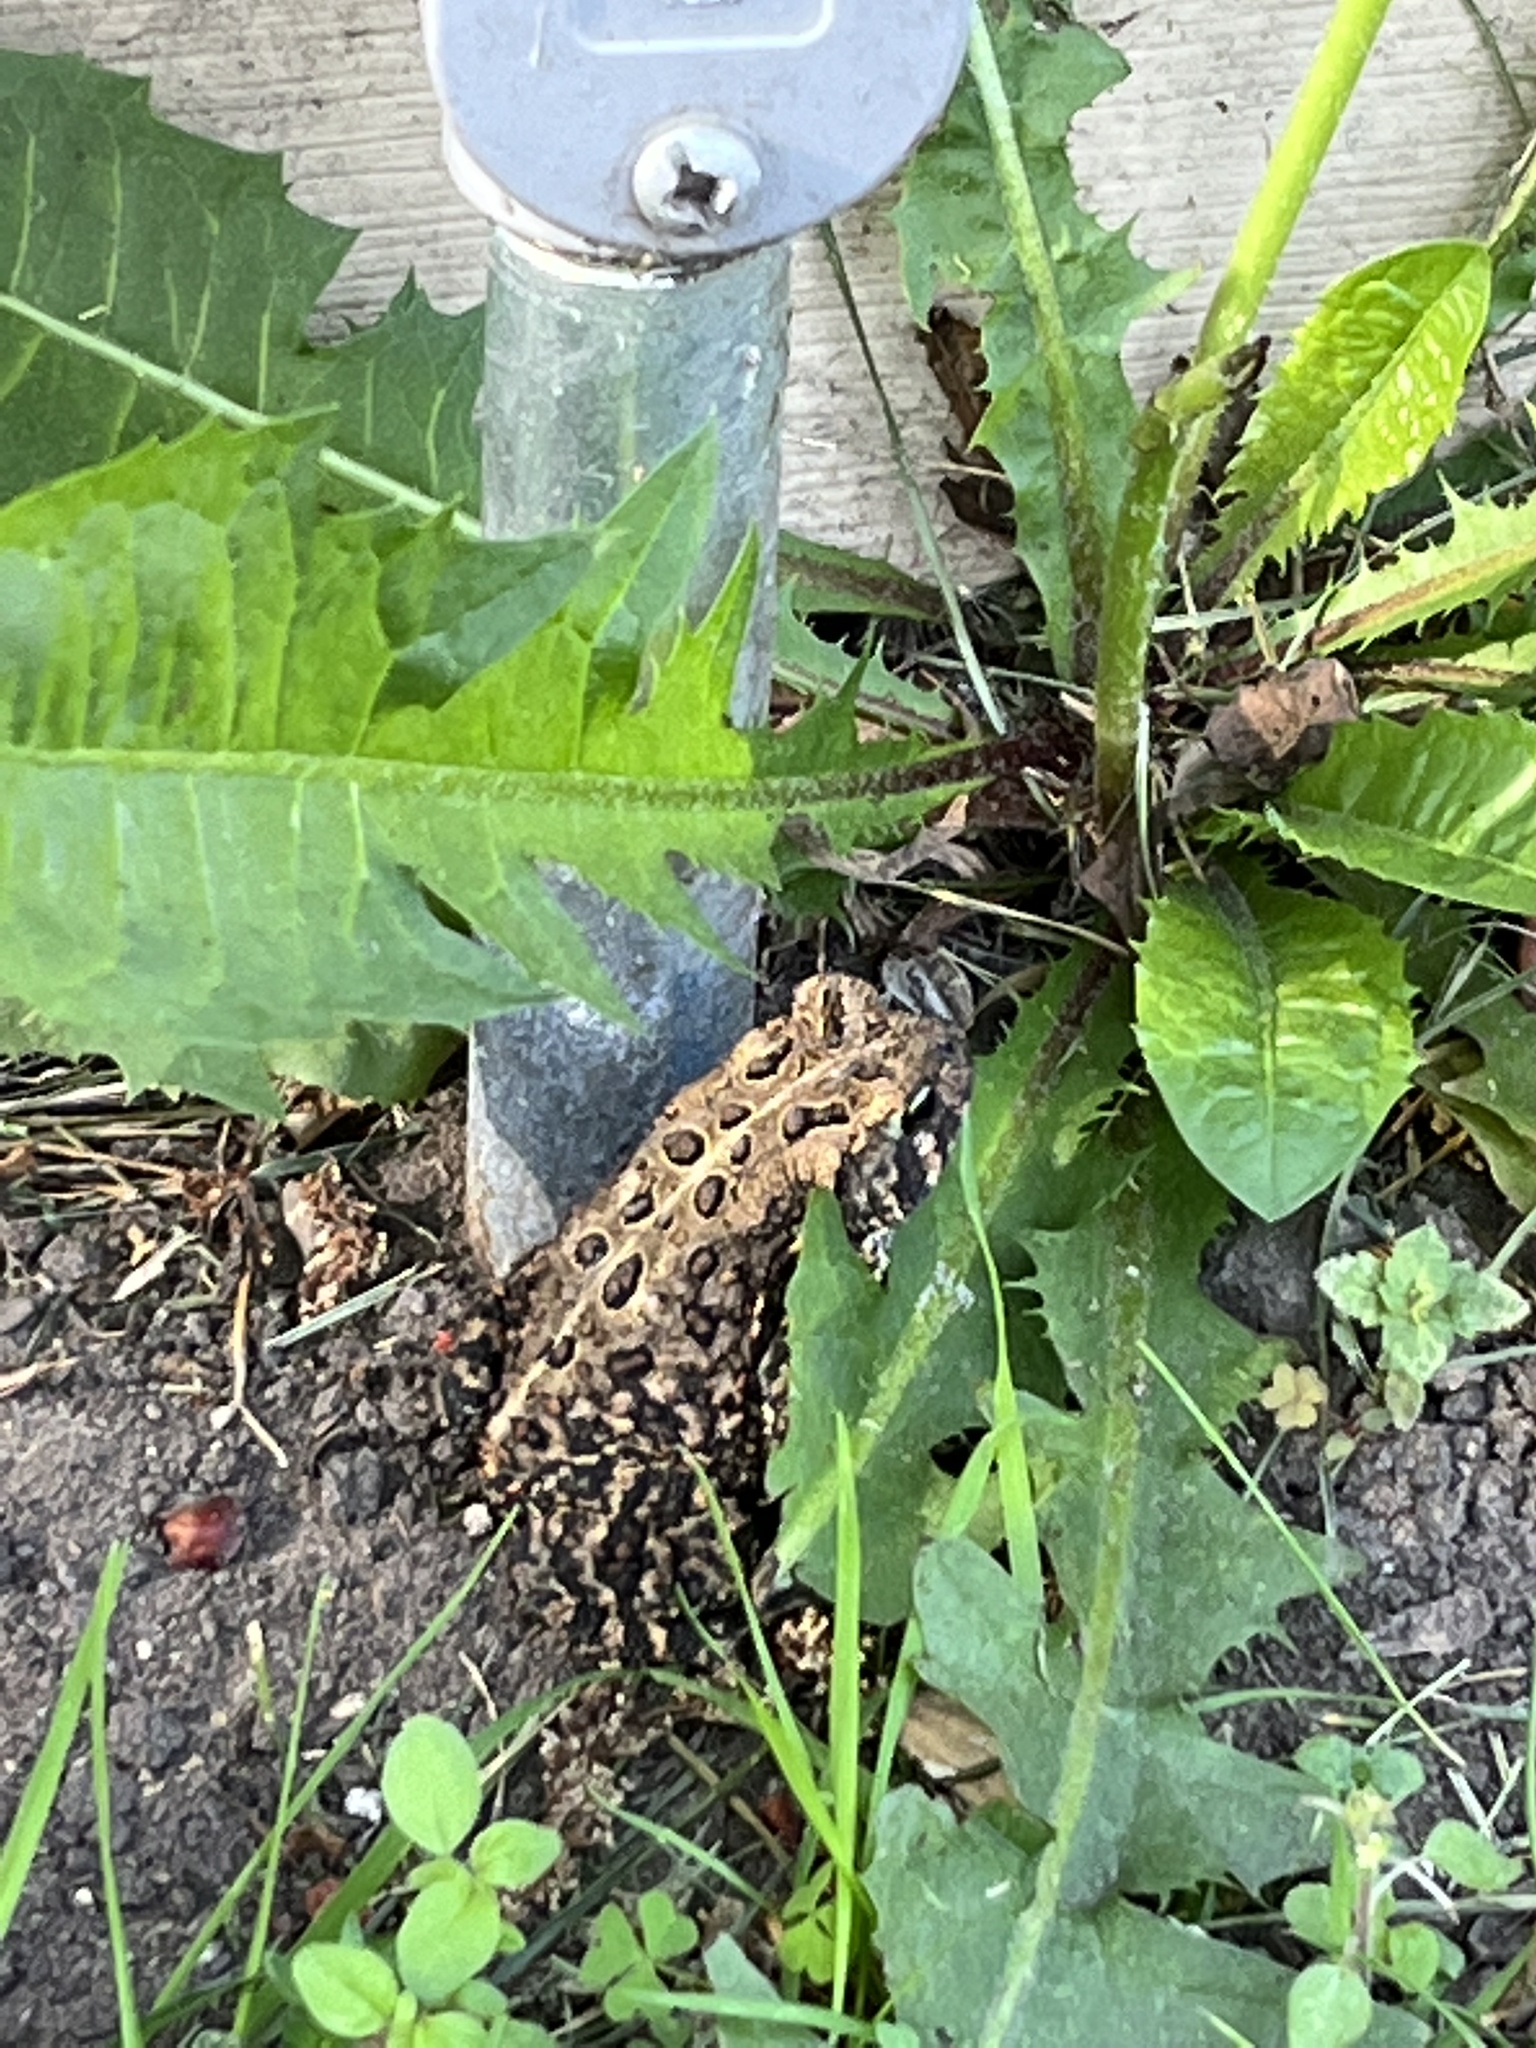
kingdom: Animalia
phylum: Chordata
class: Amphibia
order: Anura
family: Bufonidae
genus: Anaxyrus
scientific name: Anaxyrus americanus
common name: American toad
